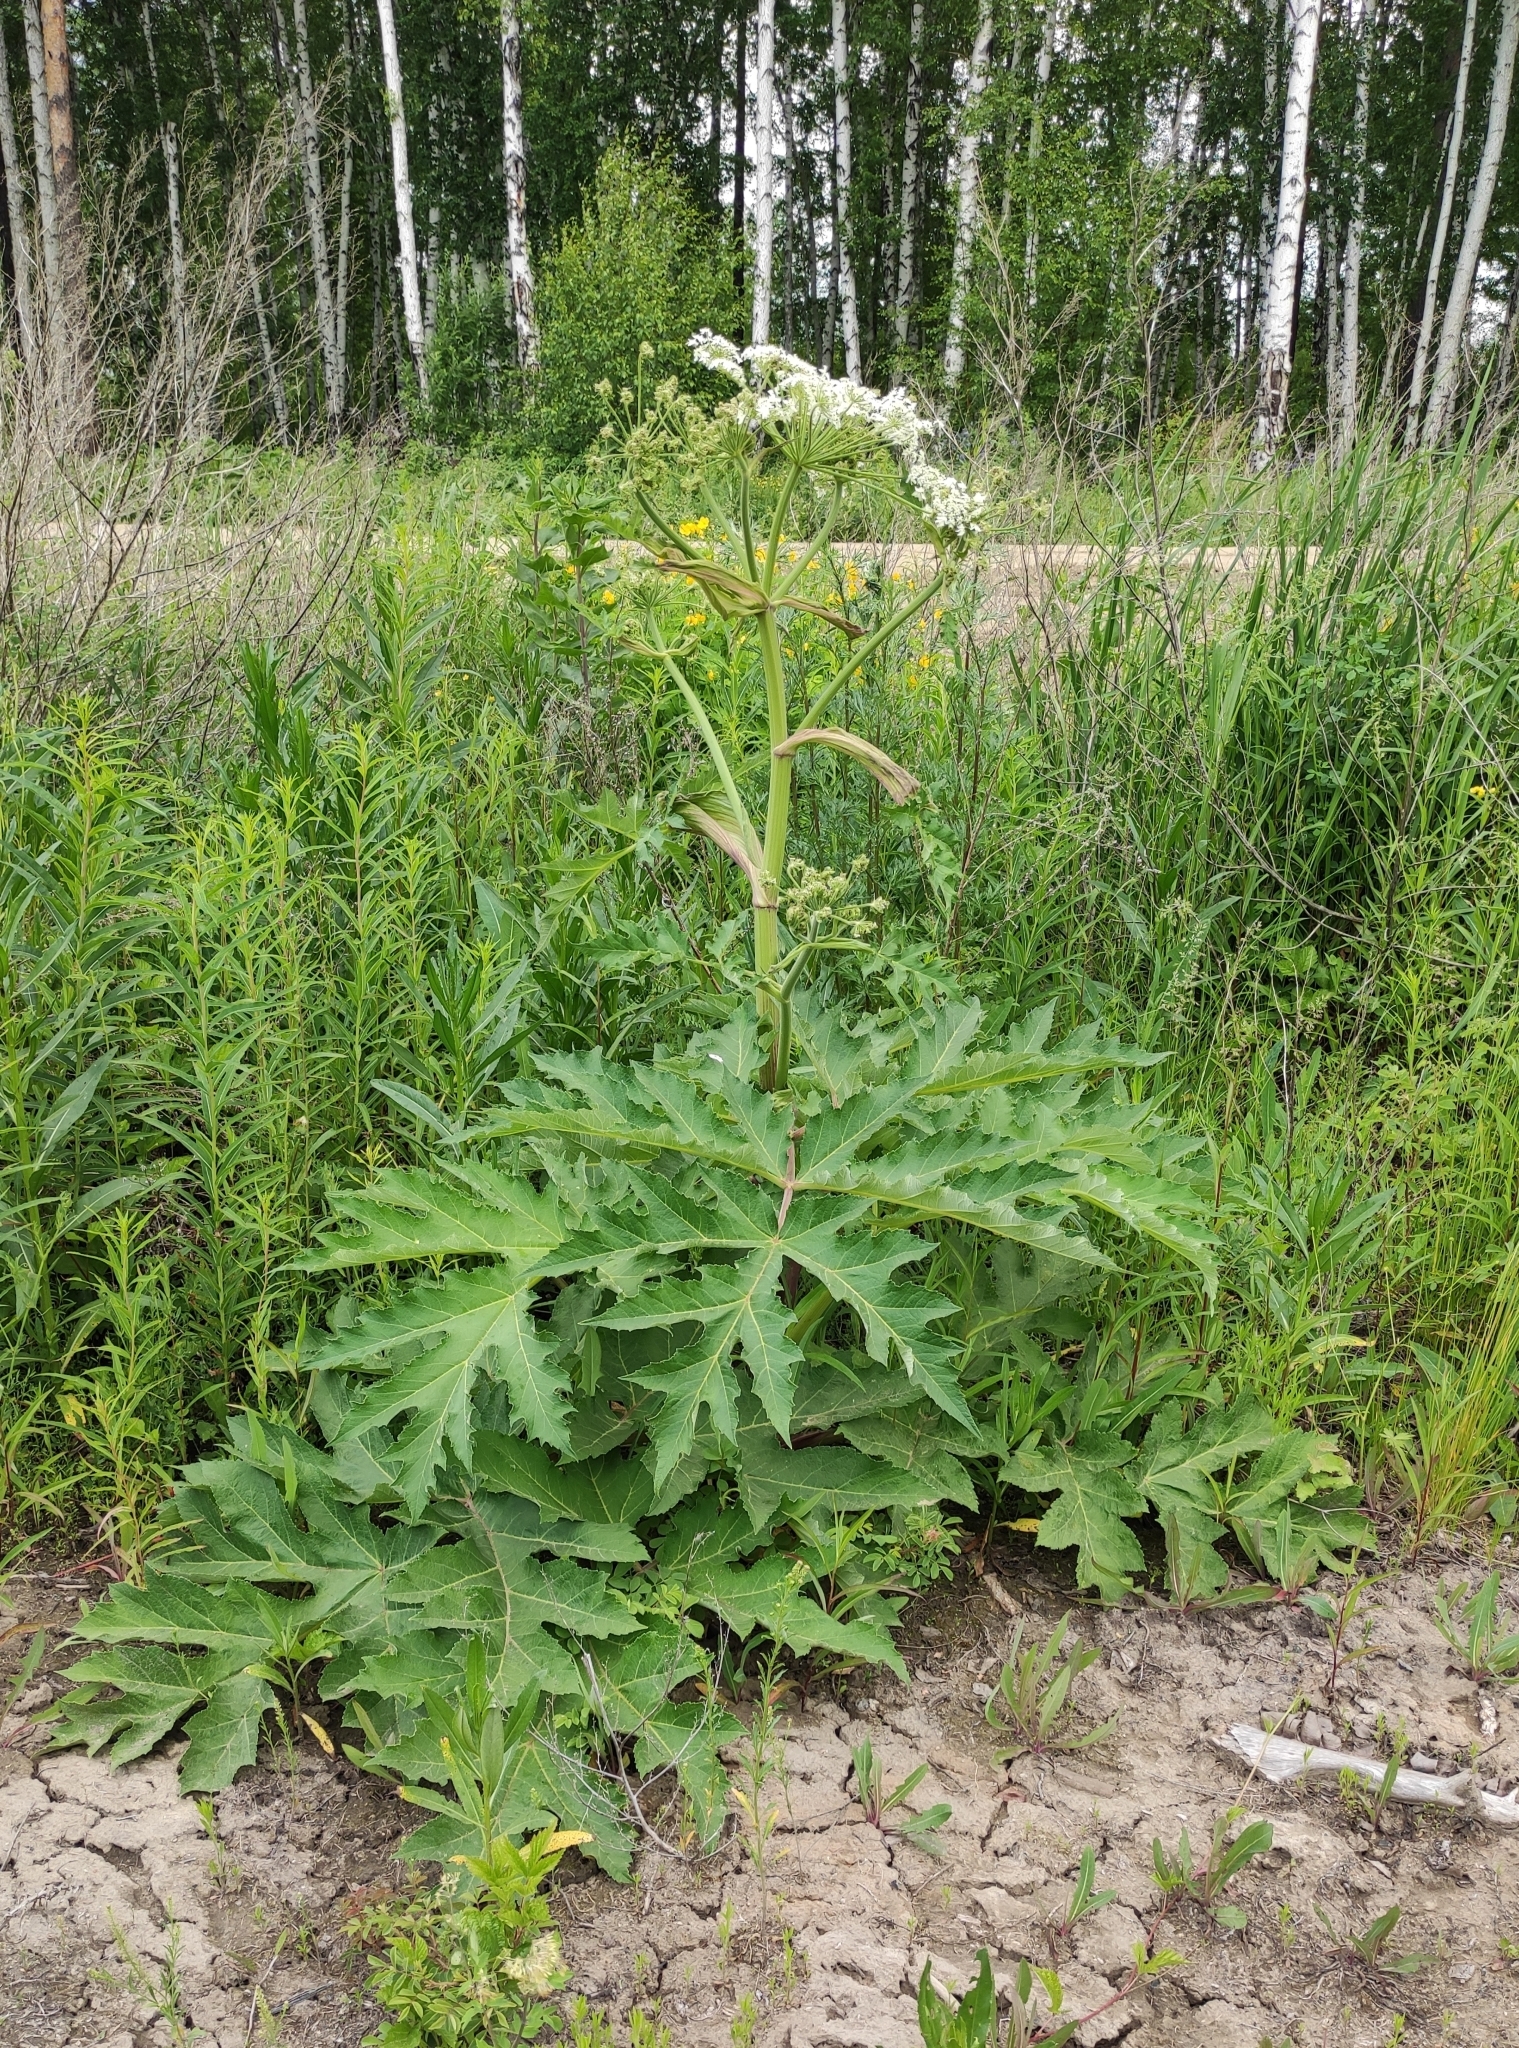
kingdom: Plantae
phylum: Tracheophyta
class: Magnoliopsida
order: Apiales
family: Apiaceae
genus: Heracleum
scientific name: Heracleum dissectum
